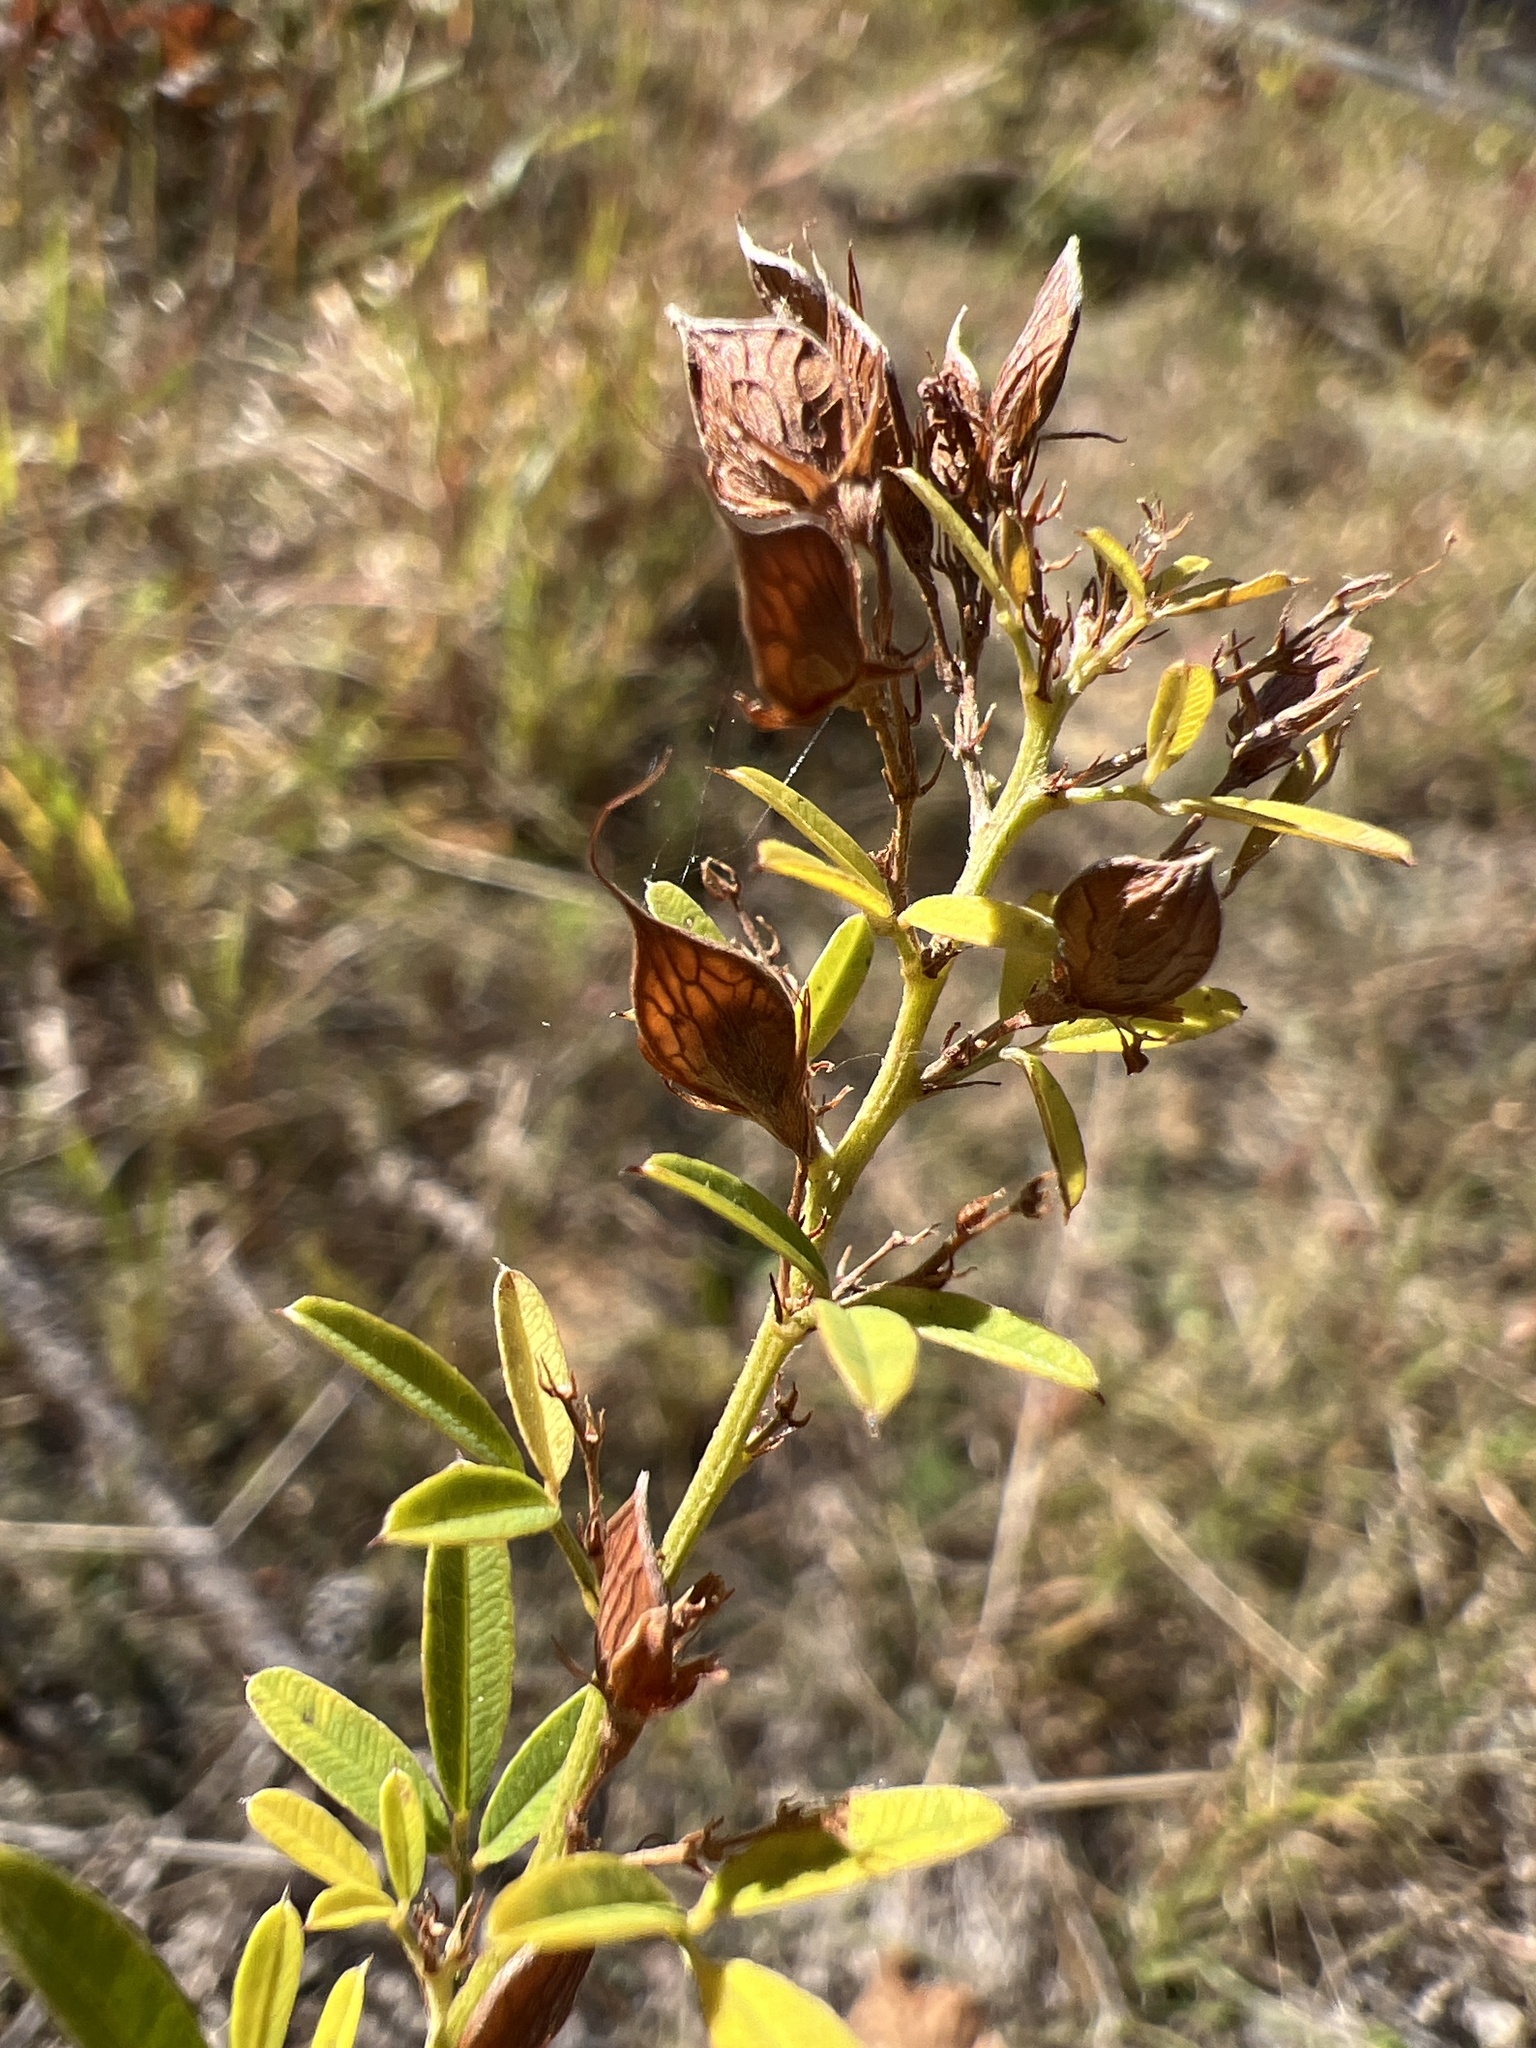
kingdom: Plantae
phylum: Tracheophyta
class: Magnoliopsida
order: Fabales
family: Fabaceae
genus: Lespedeza
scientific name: Lespedeza virginica
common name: Slender bush-clover
